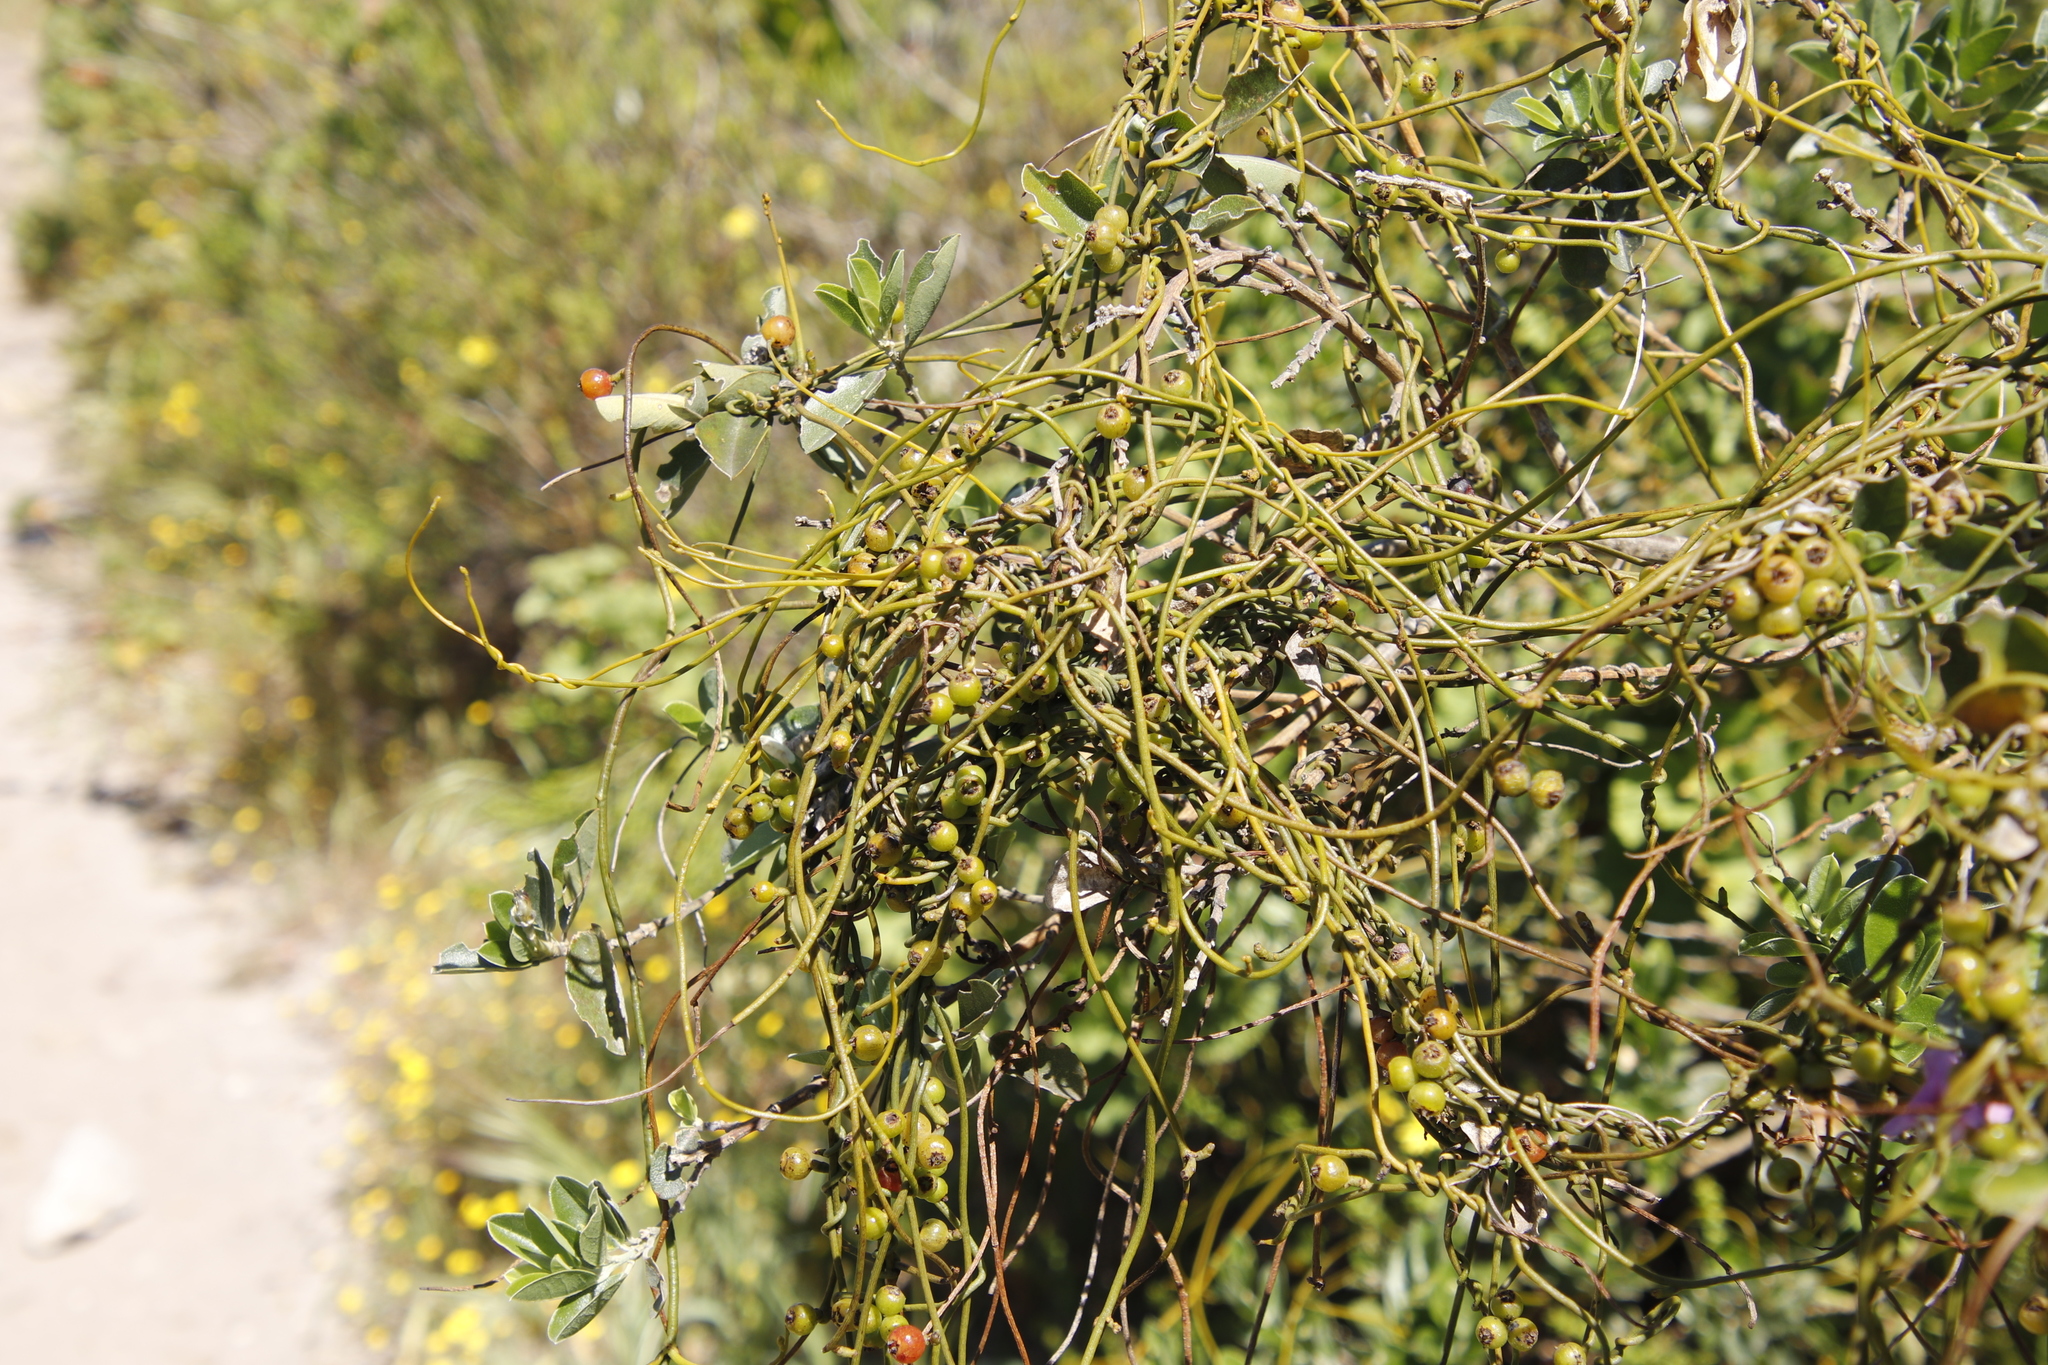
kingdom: Plantae
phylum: Tracheophyta
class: Magnoliopsida
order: Laurales
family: Lauraceae
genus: Cassytha
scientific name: Cassytha ciliolata
